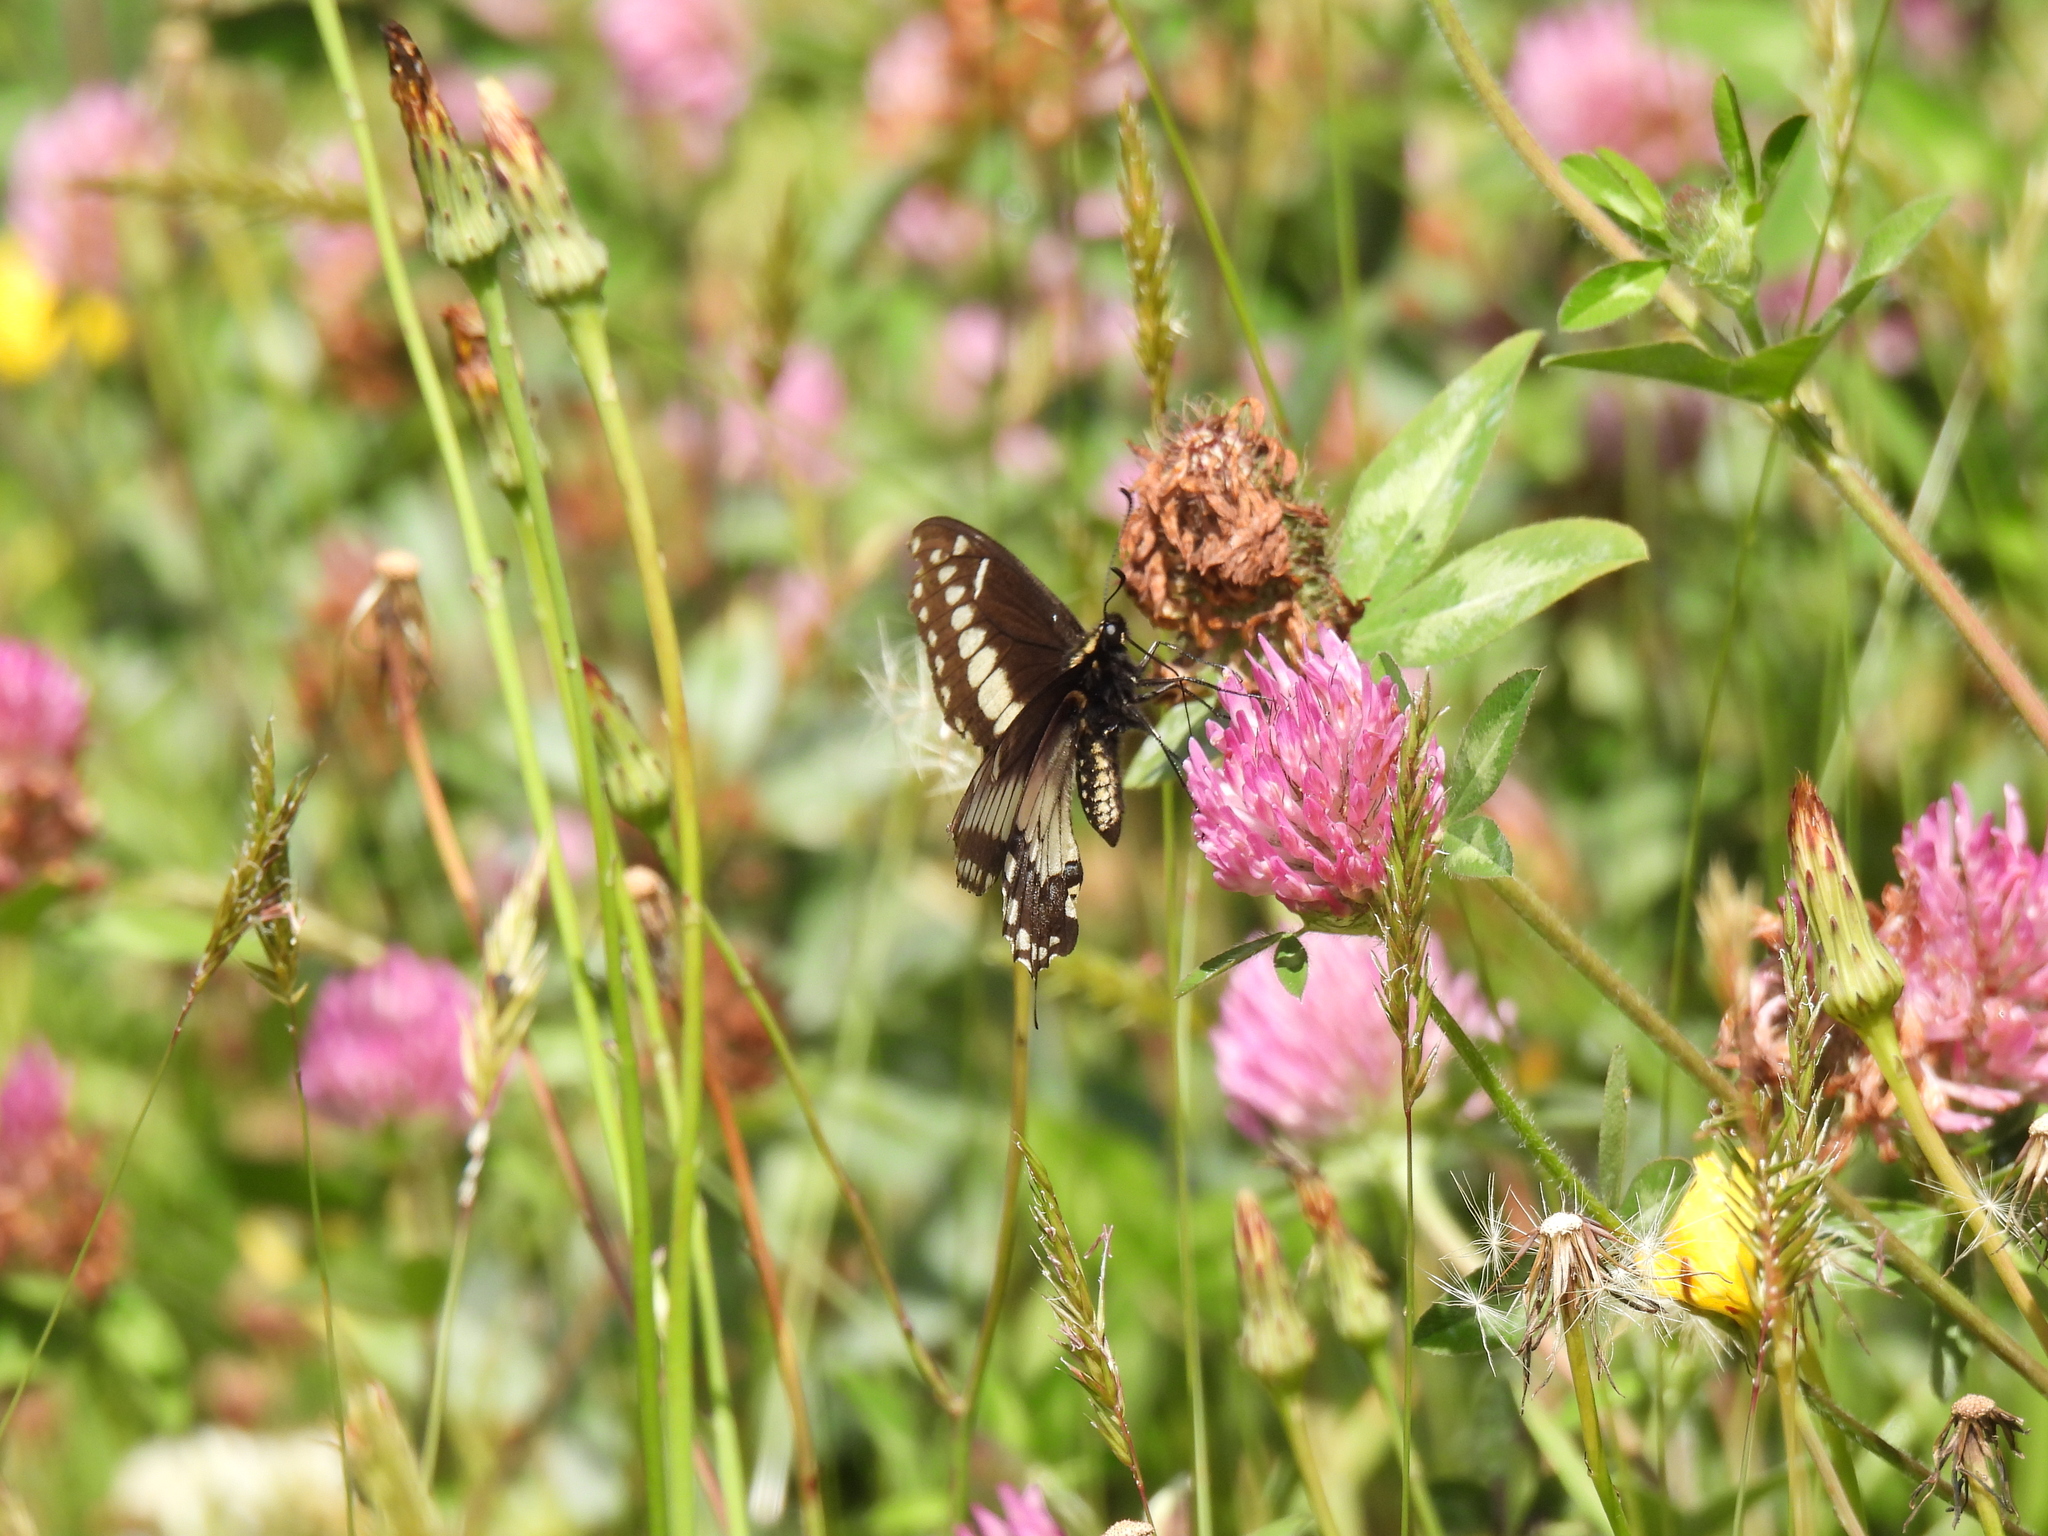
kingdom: Animalia
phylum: Arthropoda
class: Insecta
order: Lepidoptera
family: Papilionidae
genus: Papilio
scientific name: Papilio polyxenes
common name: Black swallowtail
